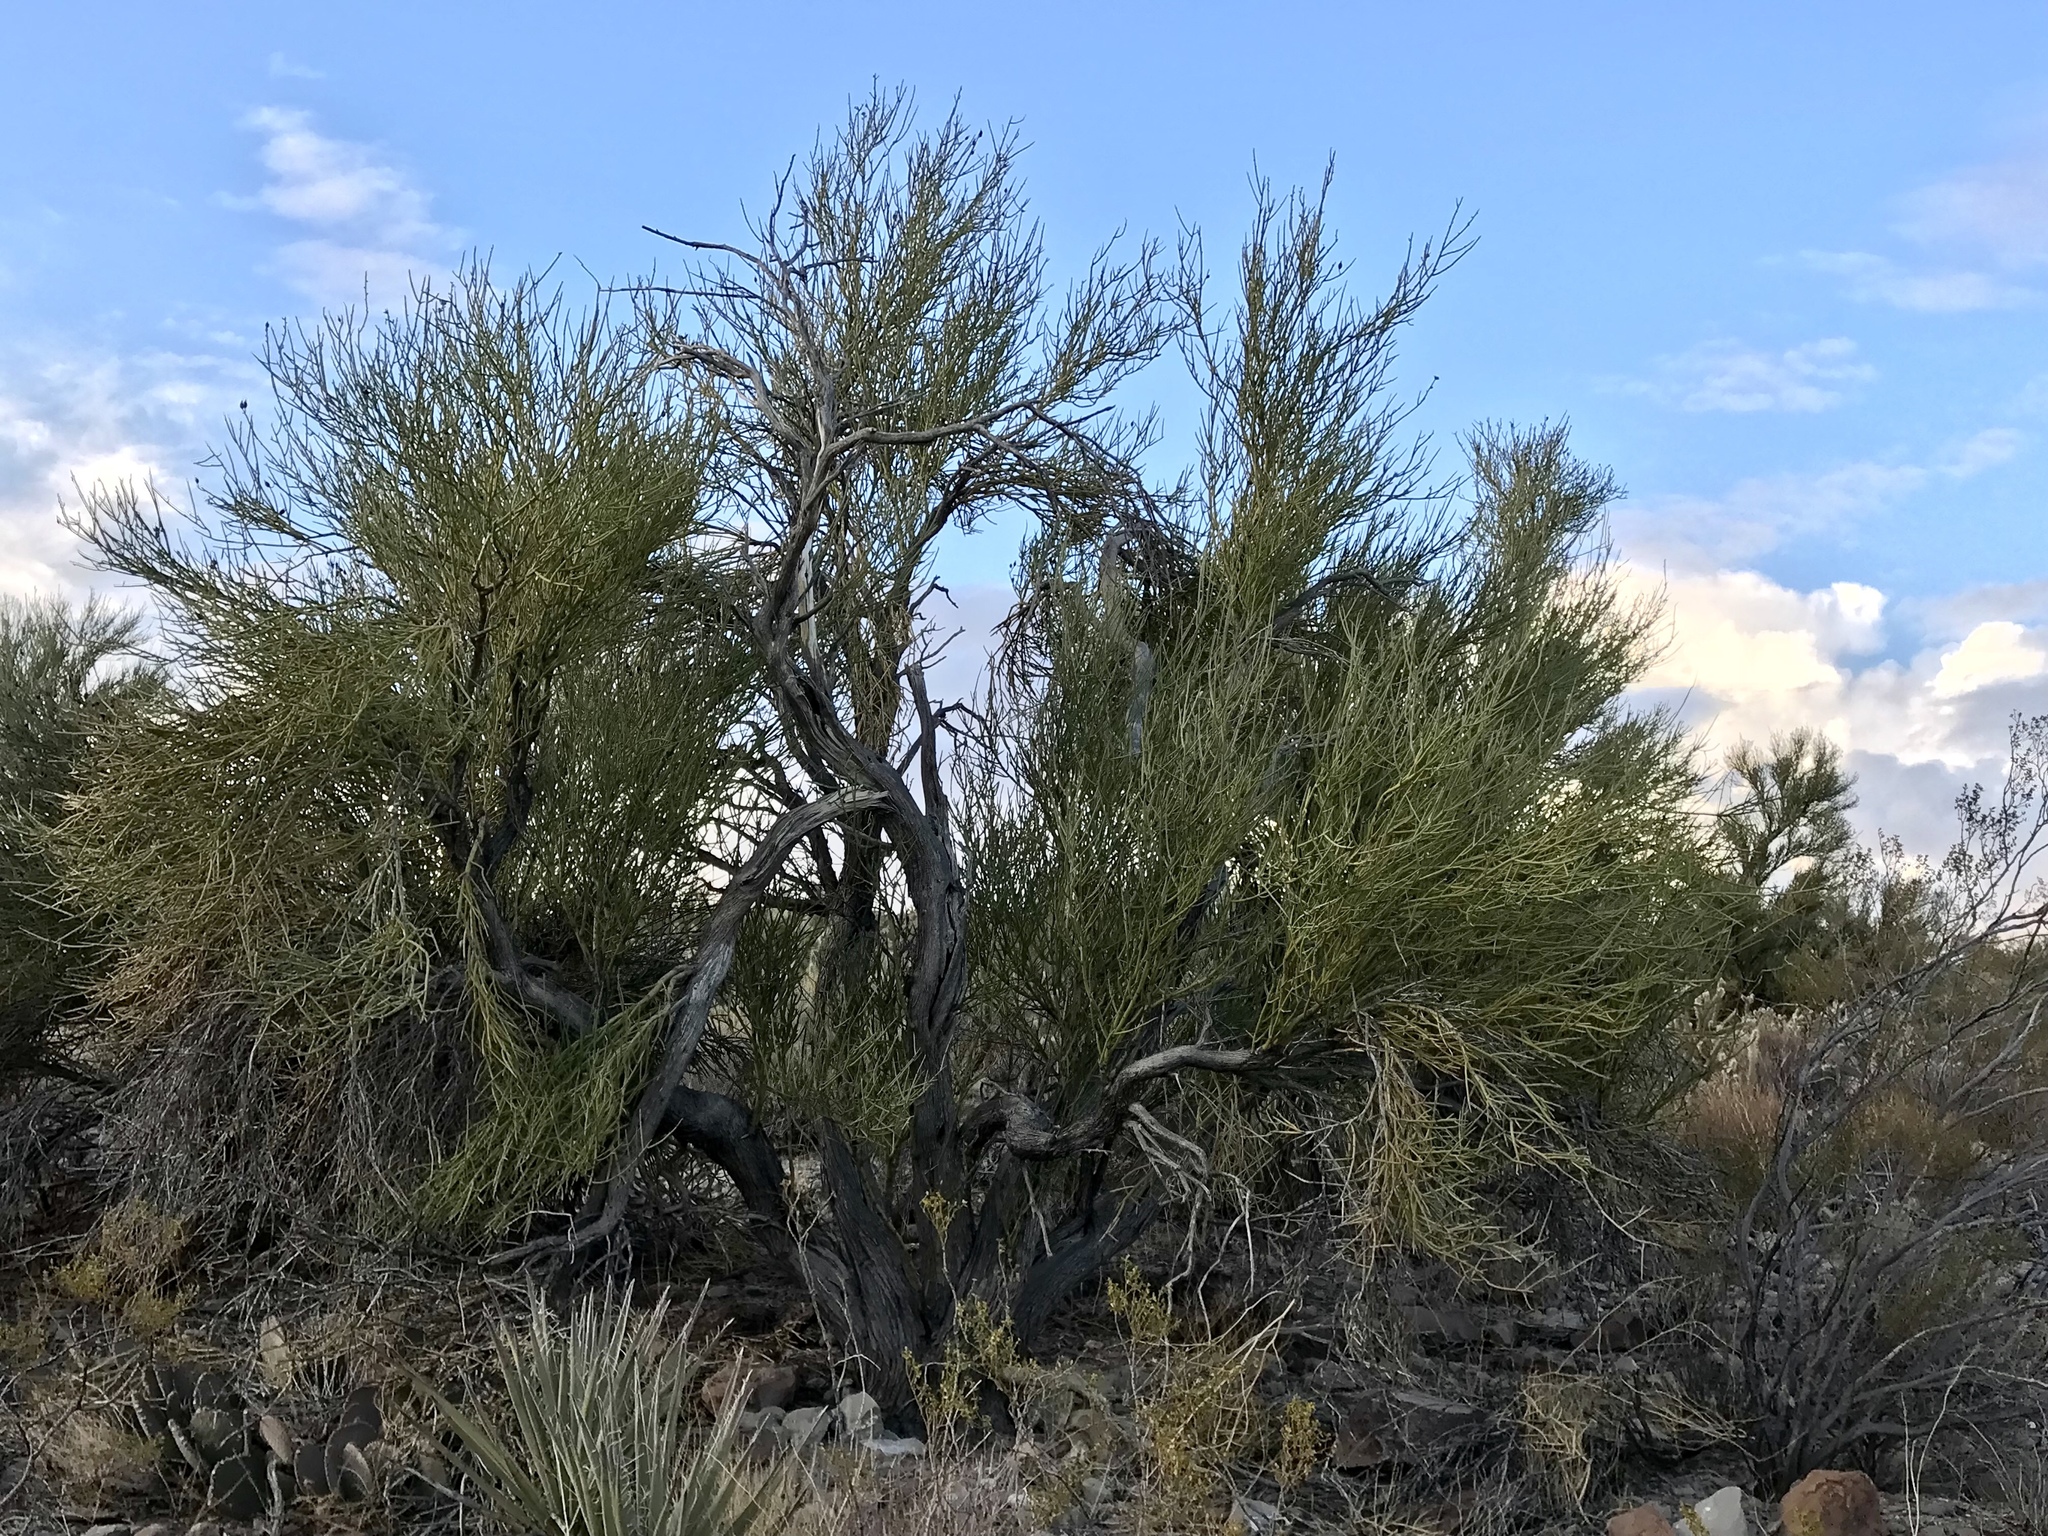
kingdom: Plantae
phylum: Tracheophyta
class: Magnoliopsida
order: Celastrales
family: Celastraceae
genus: Canotia
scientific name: Canotia holacantha
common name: Crucifixion thorns
